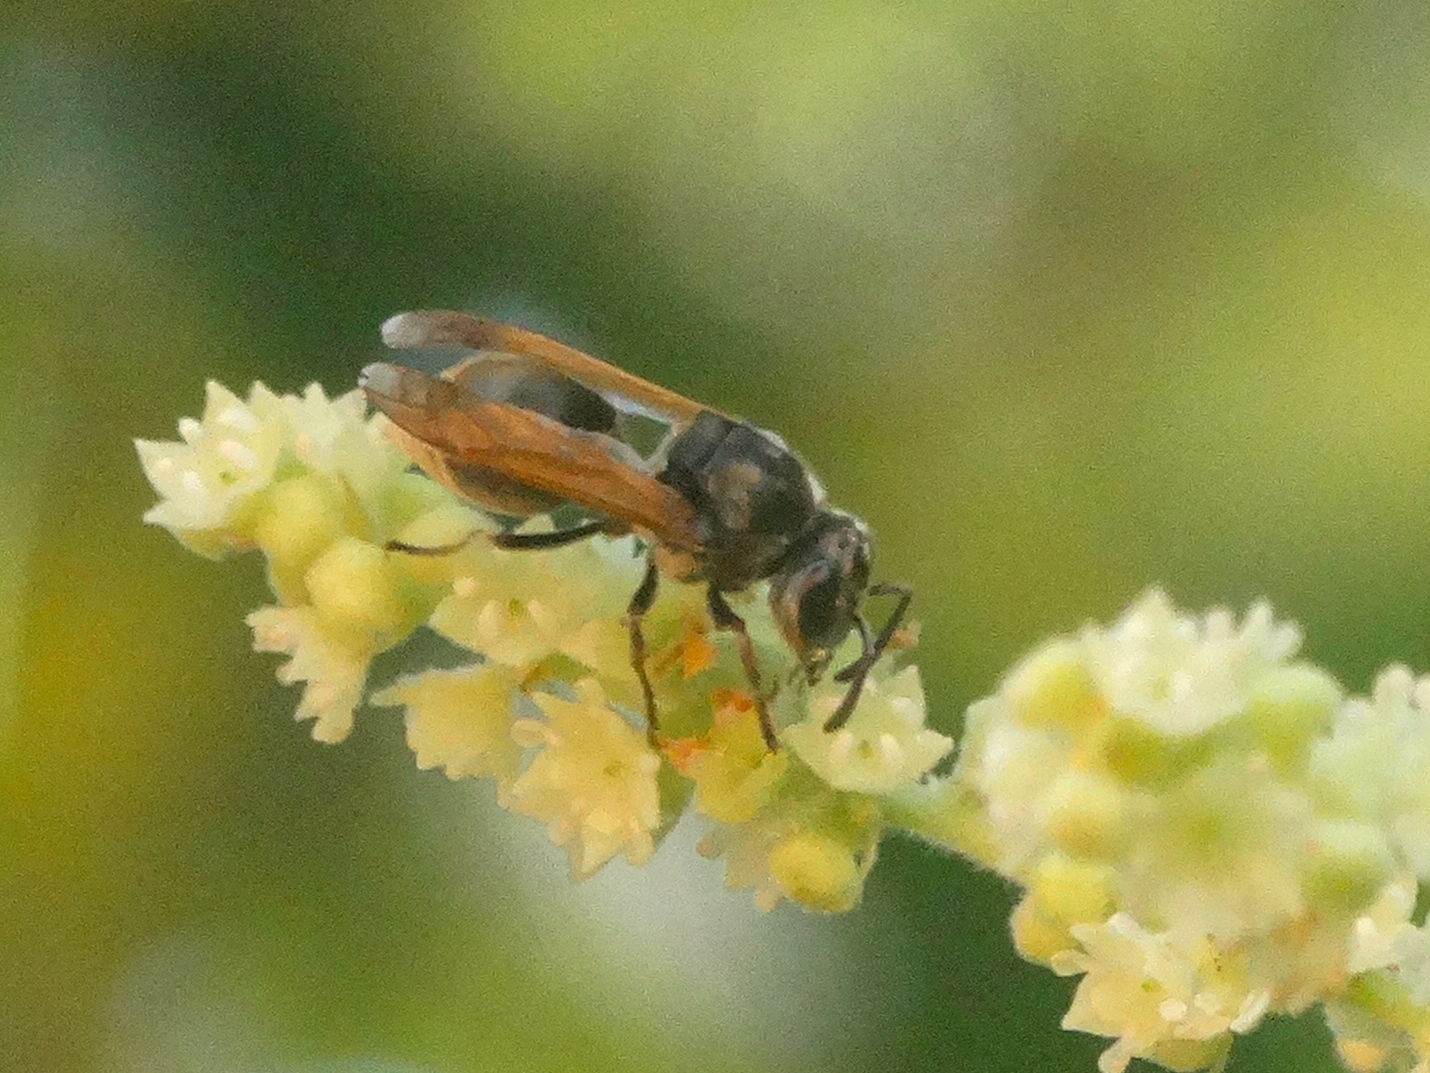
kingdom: Animalia
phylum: Arthropoda
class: Insecta
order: Hymenoptera
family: Vespidae
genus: Brachygastra
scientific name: Brachygastra mellifica
